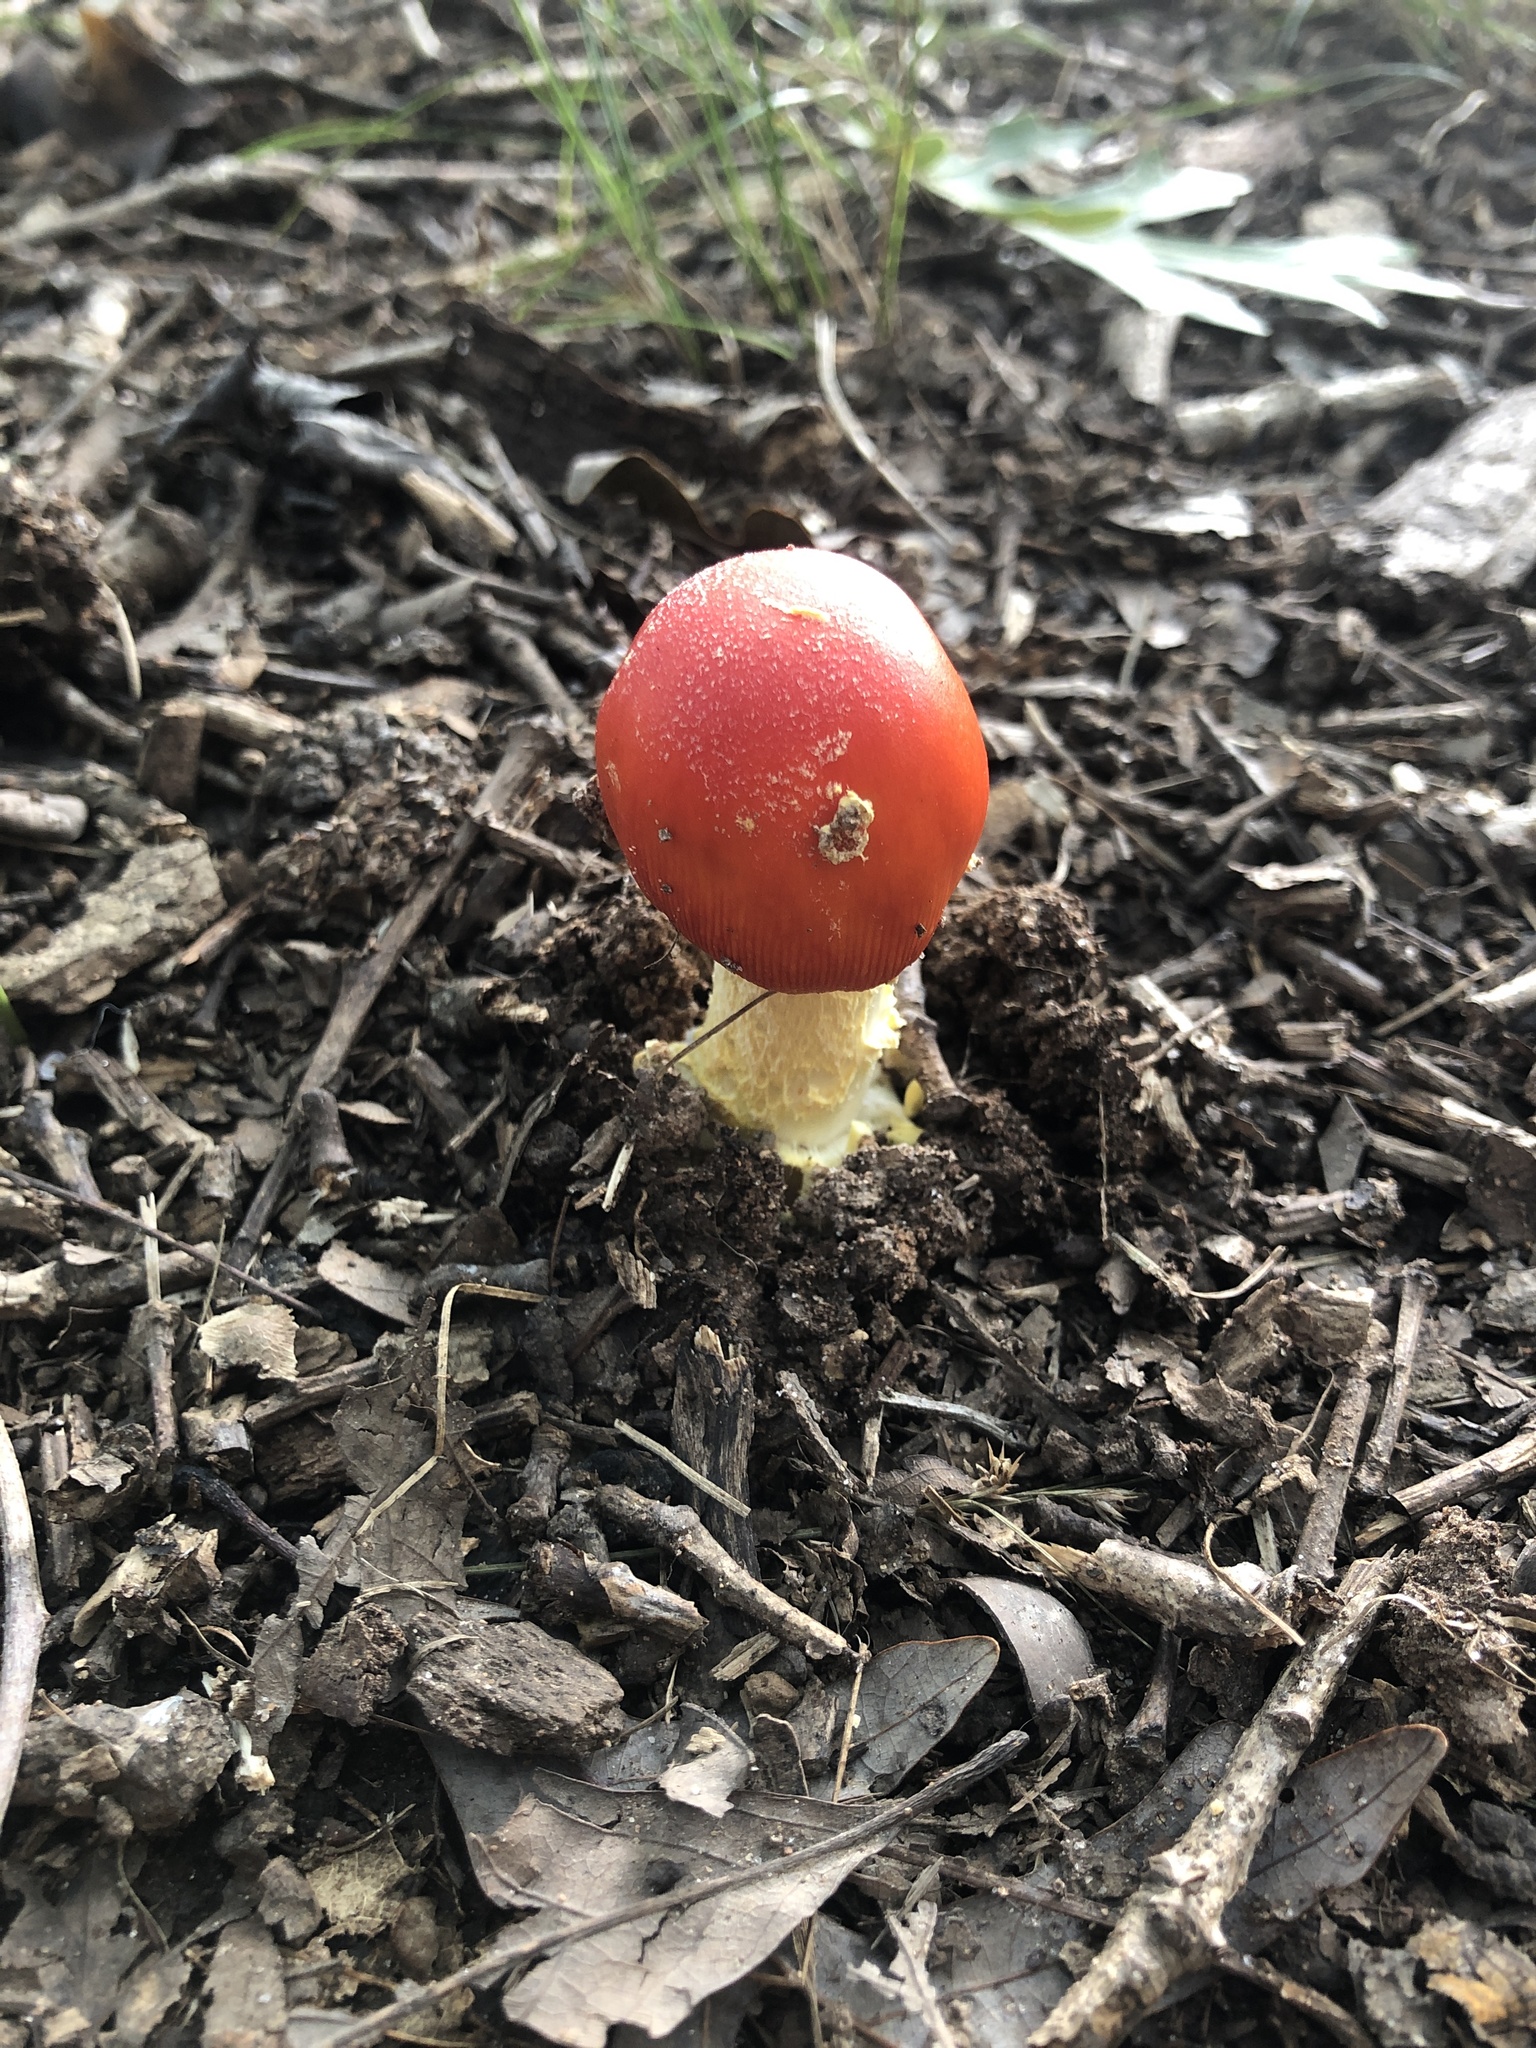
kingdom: Fungi
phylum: Basidiomycota
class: Agaricomycetes
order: Agaricales
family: Amanitaceae
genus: Amanita
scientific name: Amanita parcivolvata
